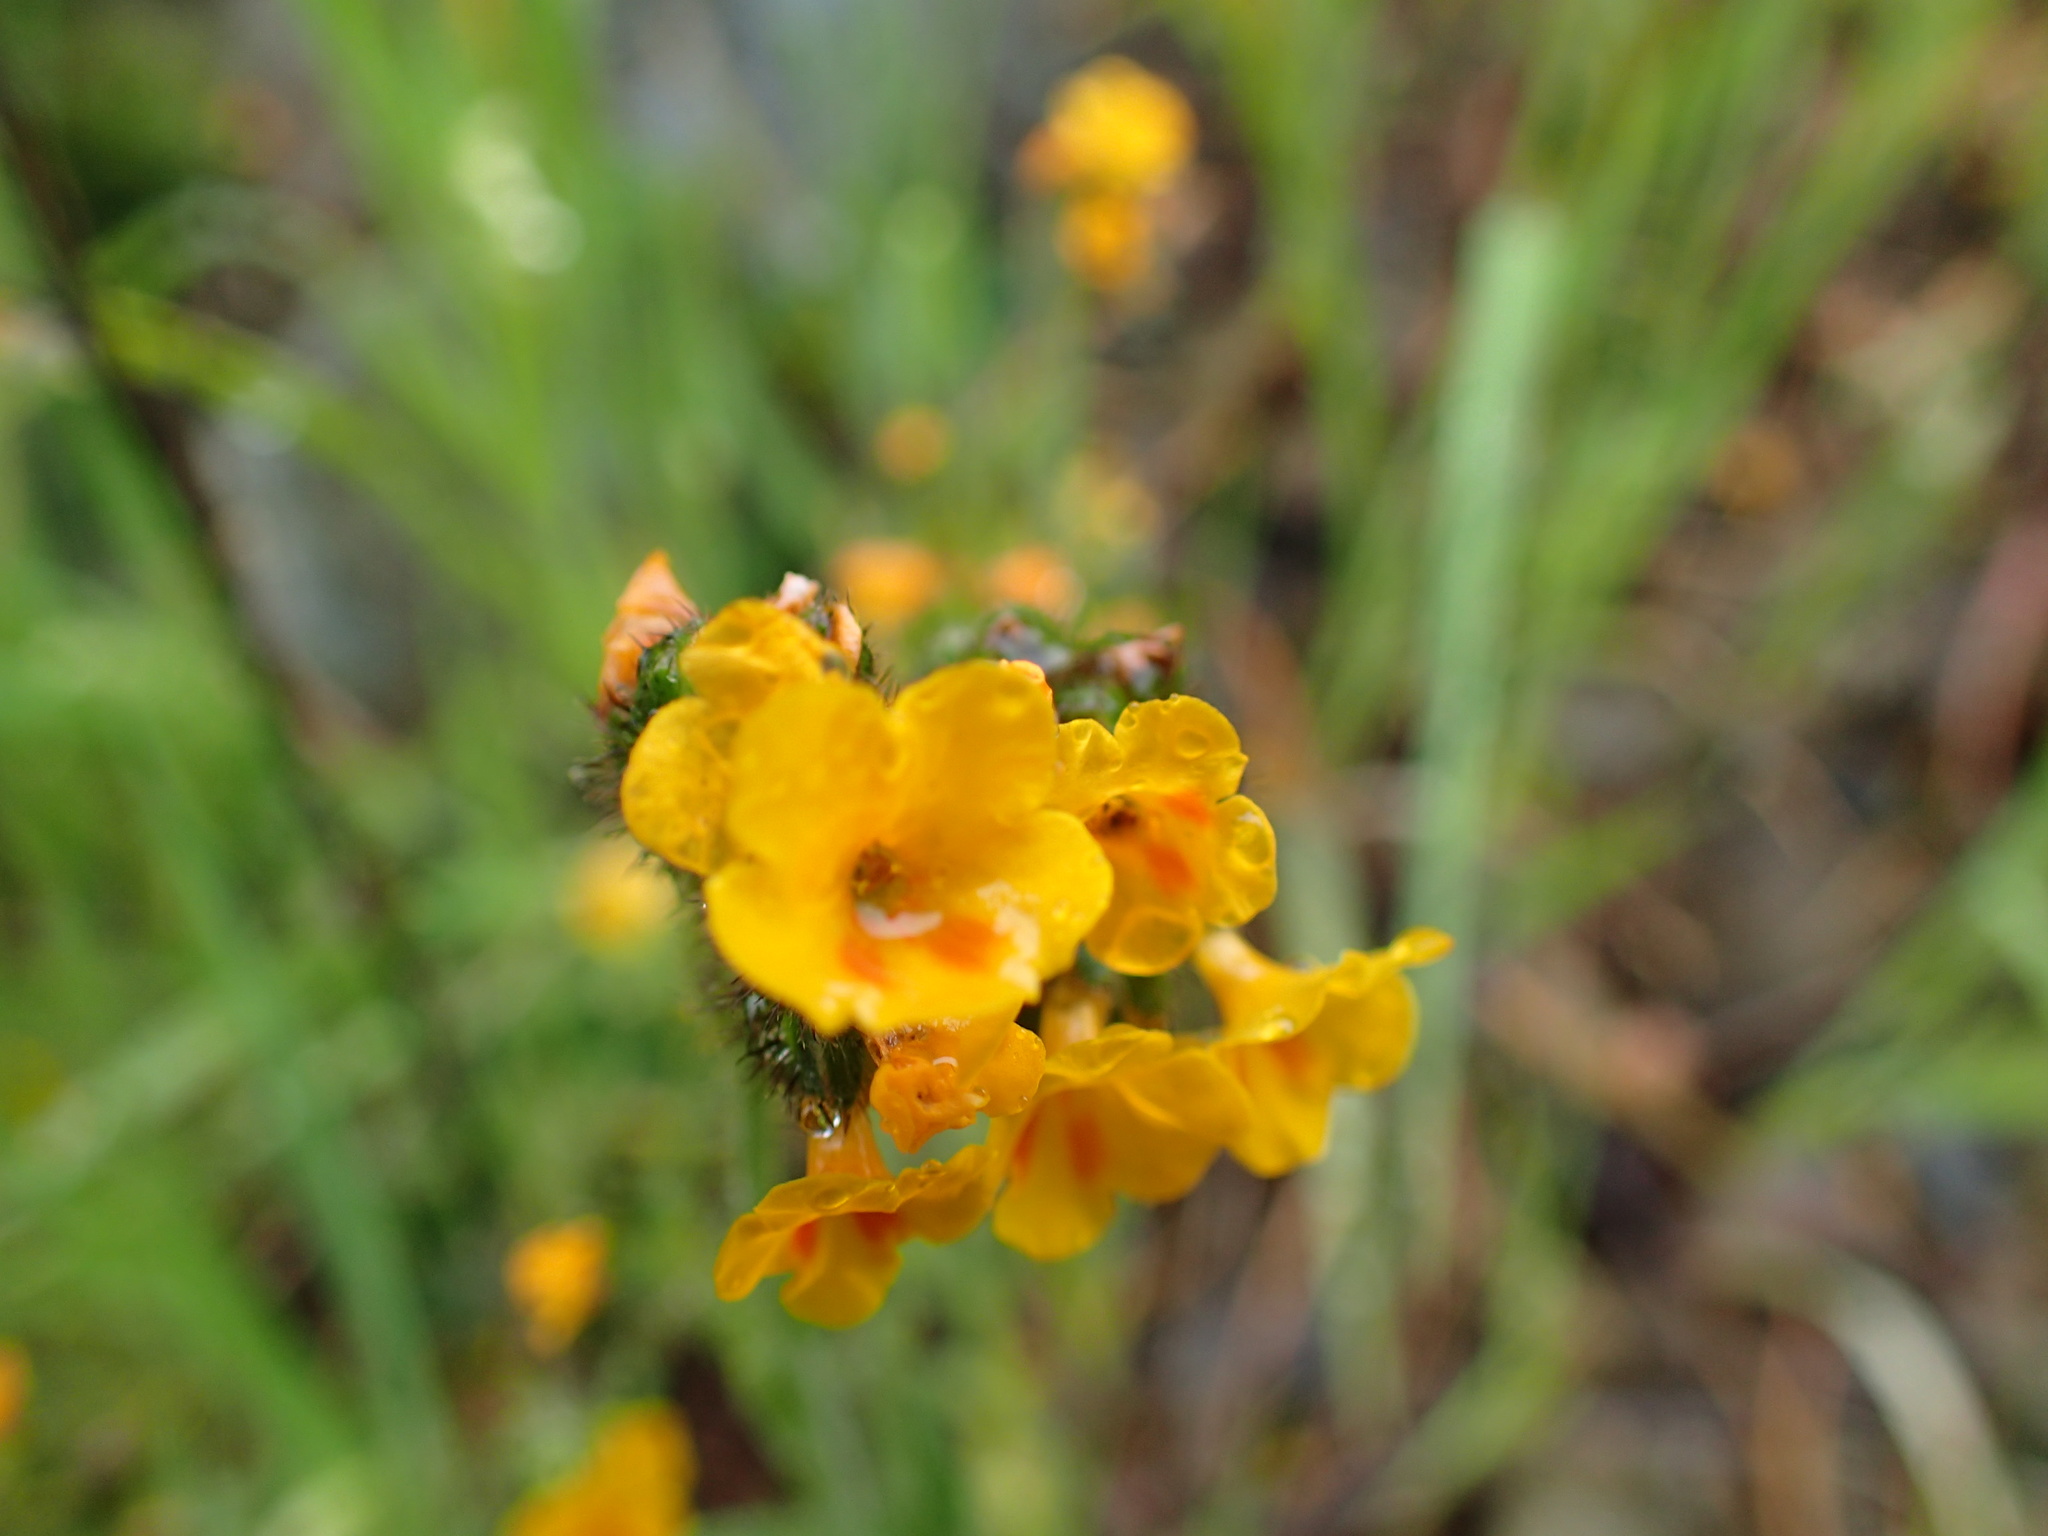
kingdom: Plantae
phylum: Tracheophyta
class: Magnoliopsida
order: Boraginales
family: Boraginaceae
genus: Amsinckia
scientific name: Amsinckia lunaris
